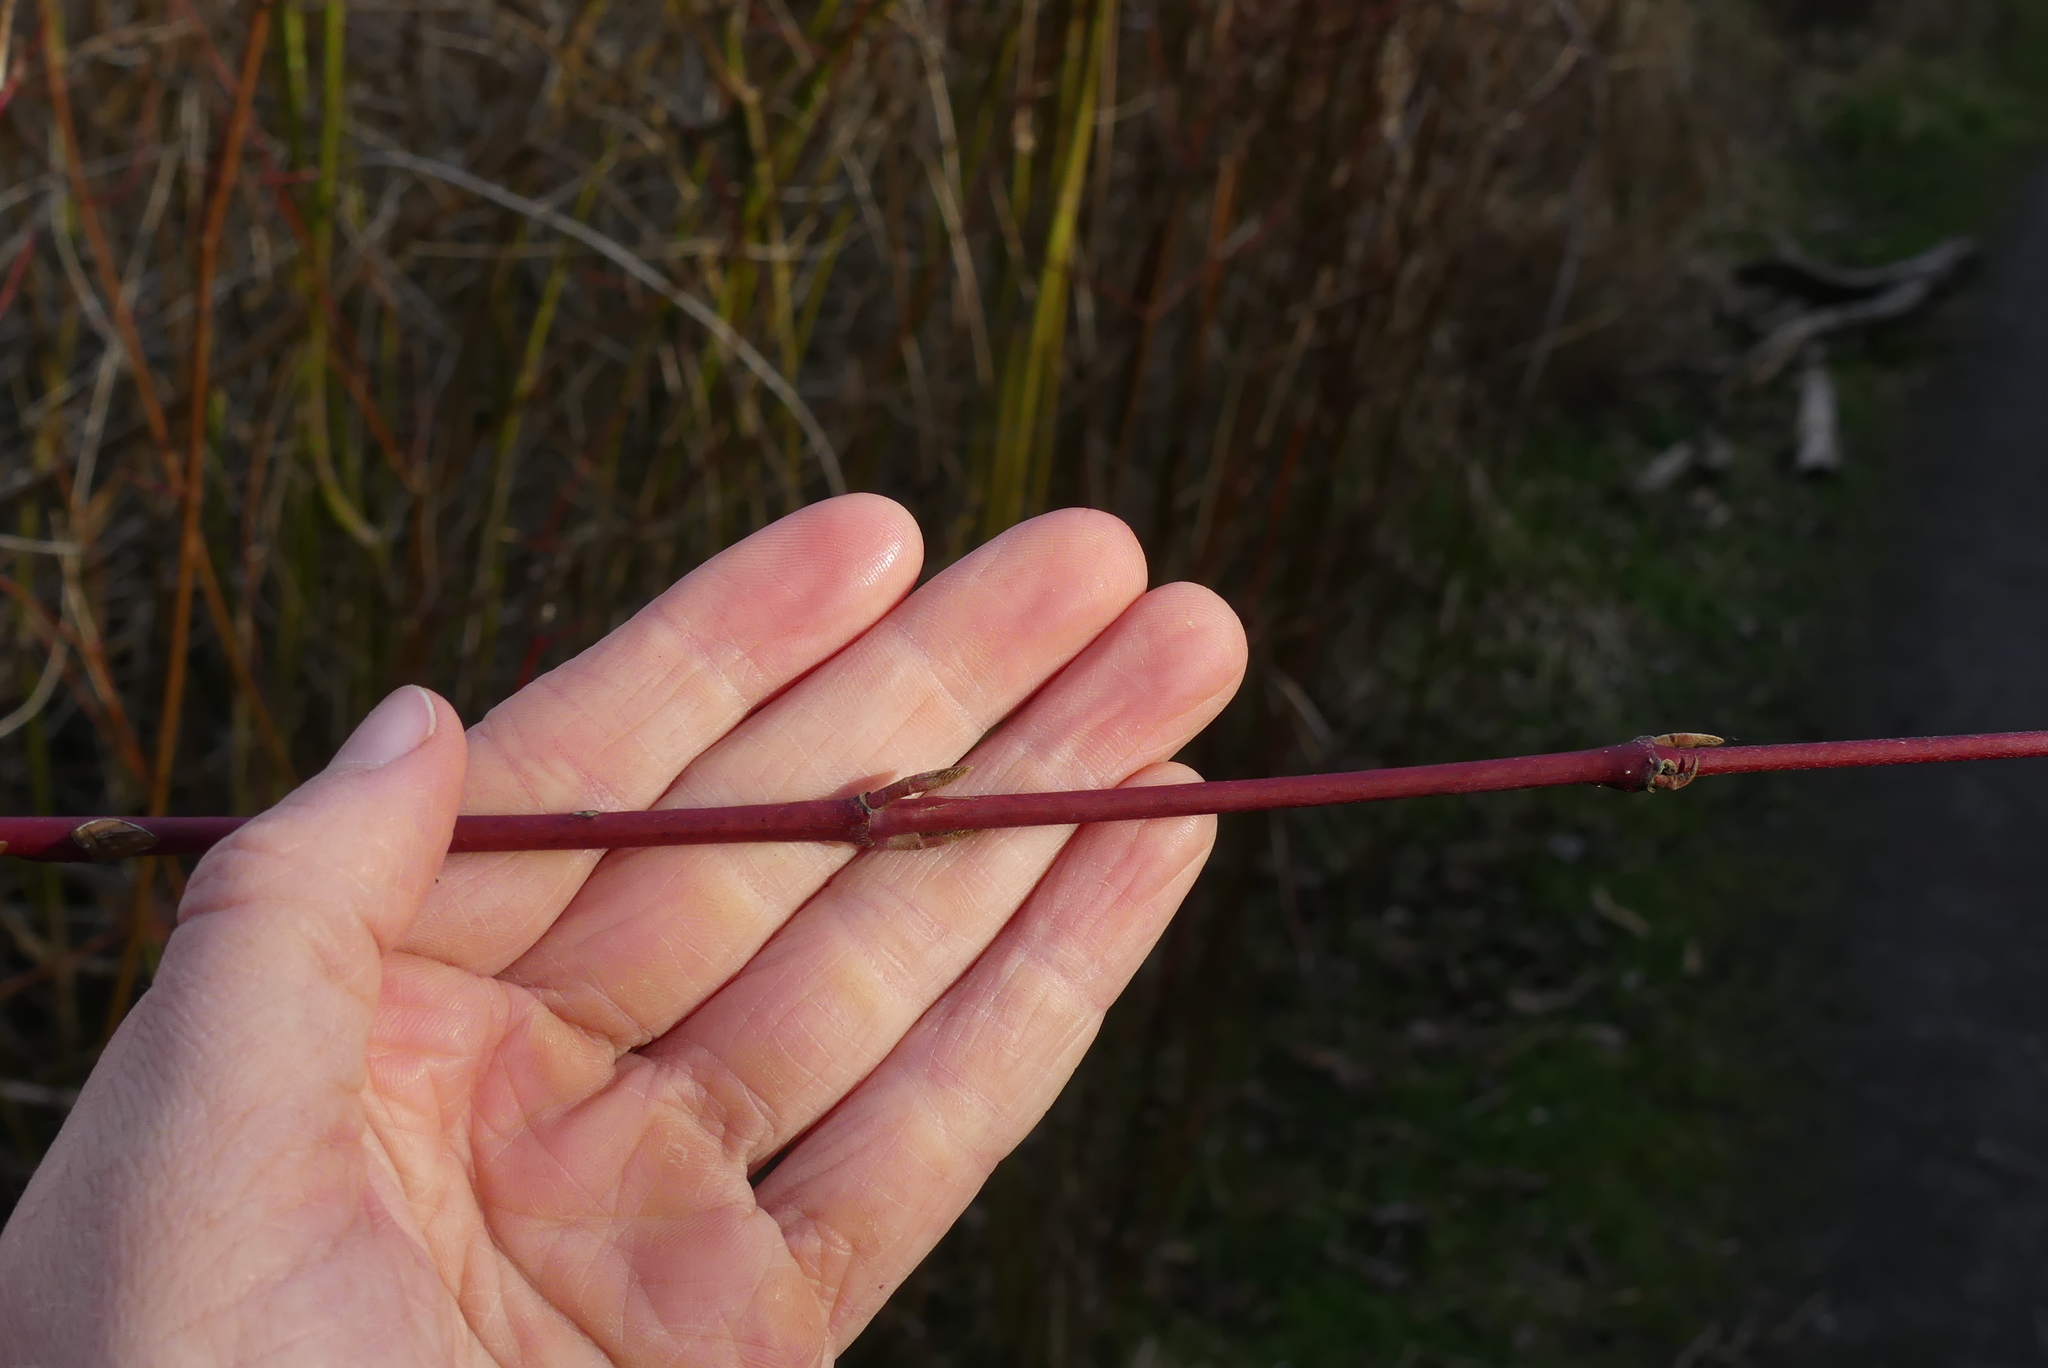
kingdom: Plantae
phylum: Tracheophyta
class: Magnoliopsida
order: Cornales
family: Cornaceae
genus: Cornus
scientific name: Cornus sericea
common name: Red-osier dogwood
